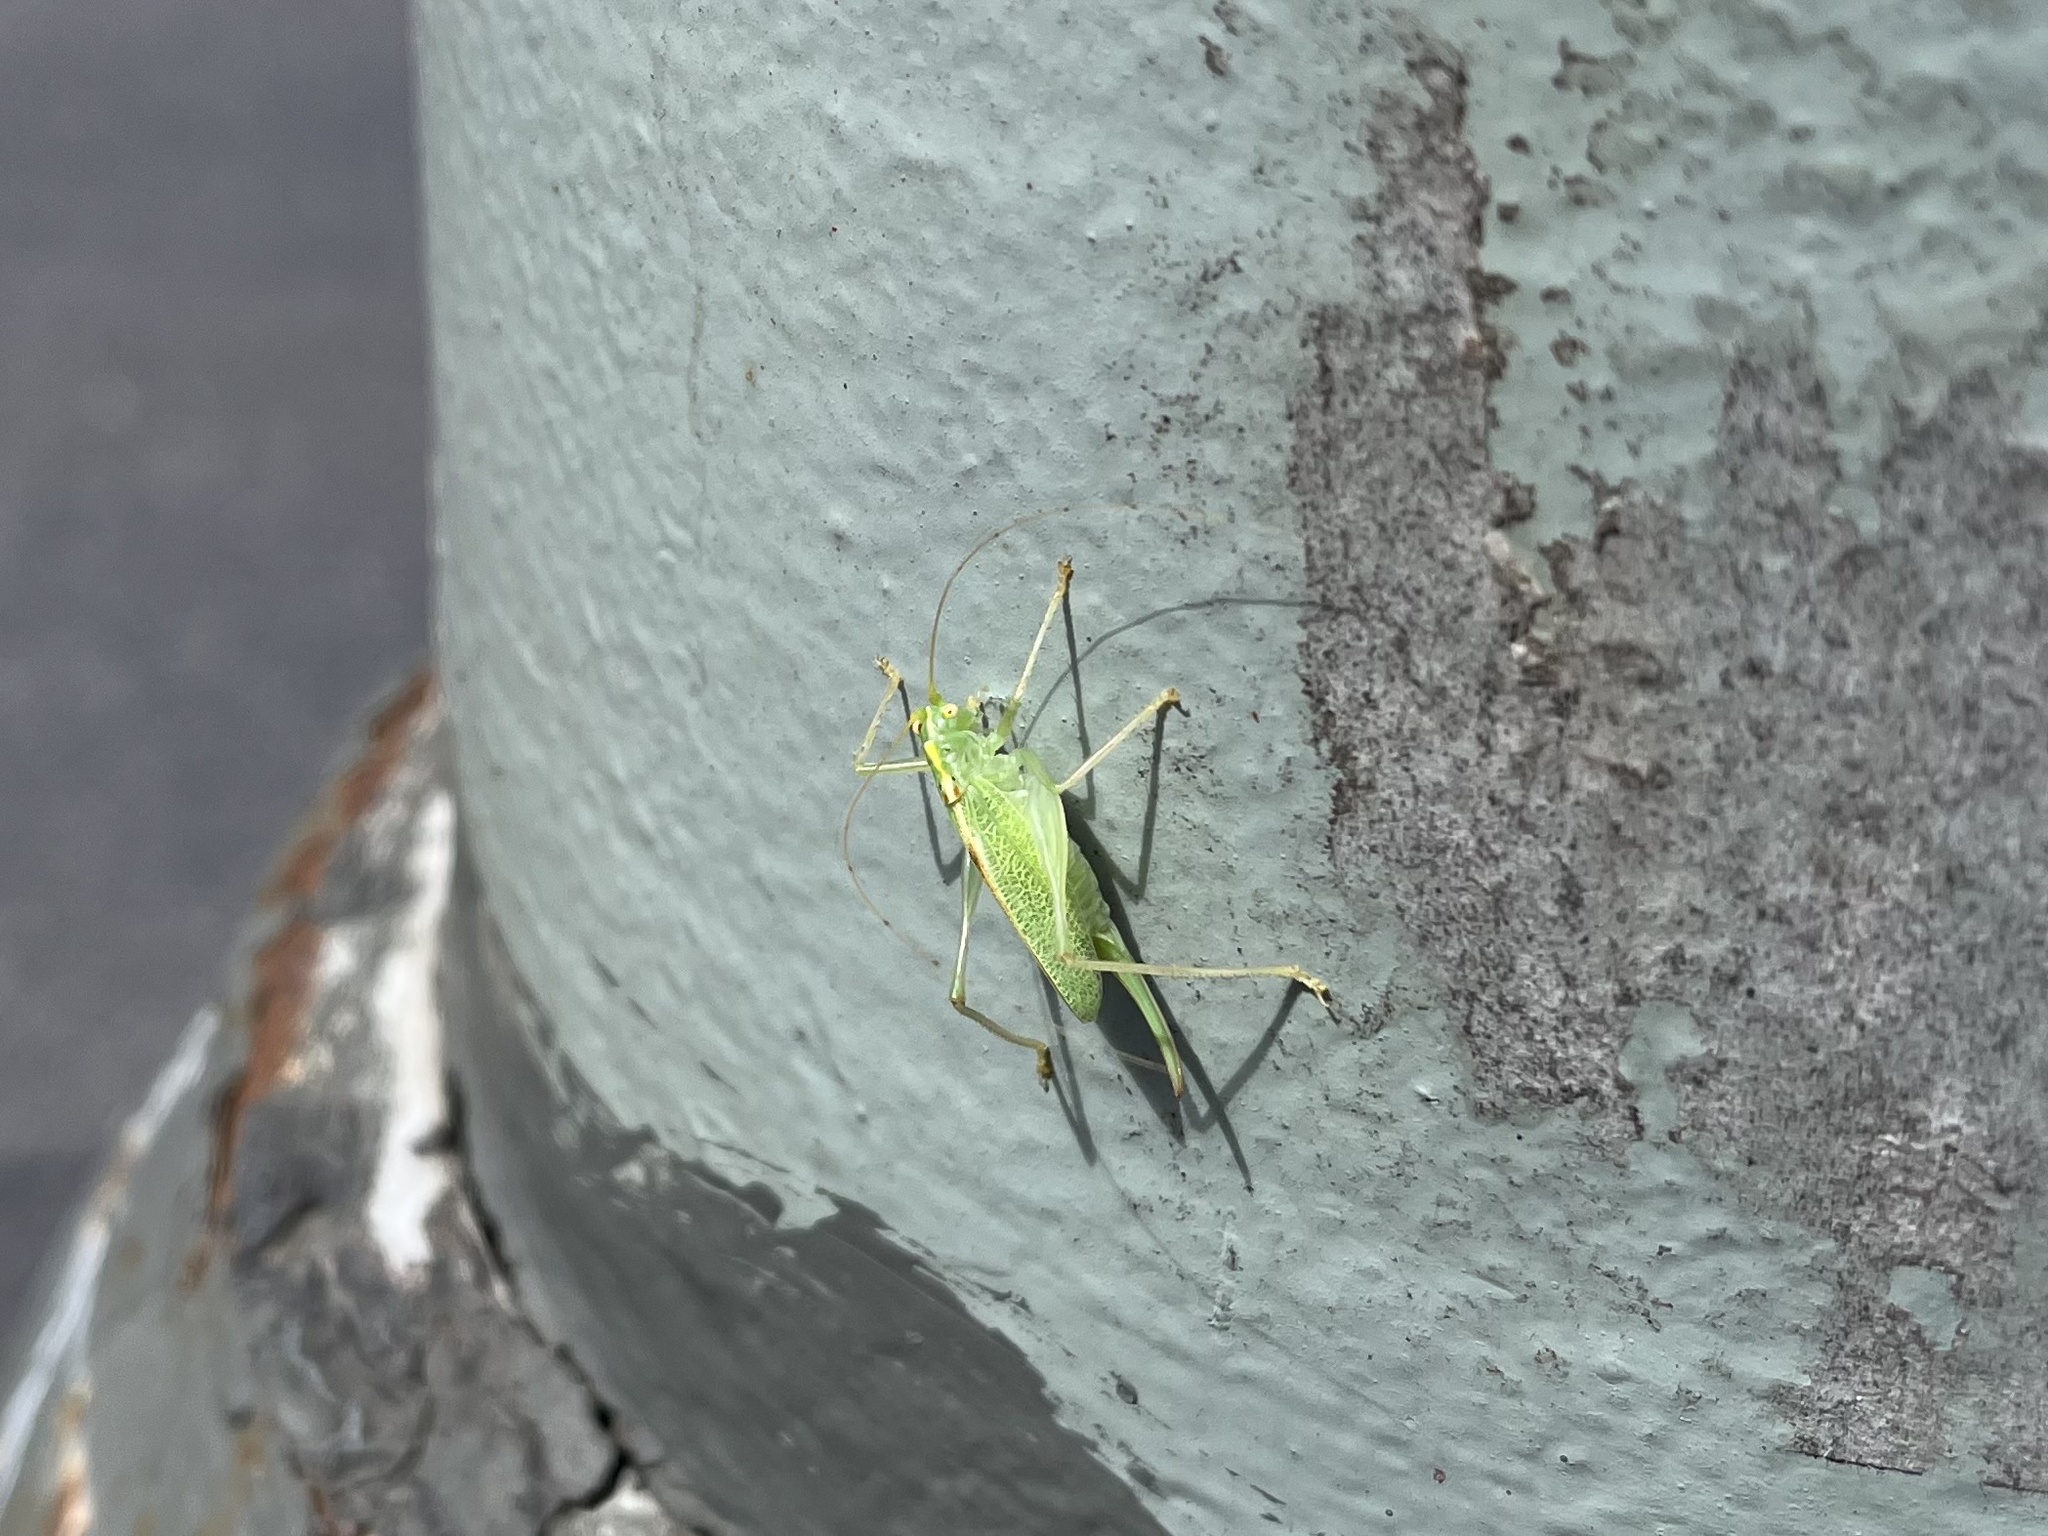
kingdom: Animalia
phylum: Arthropoda
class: Insecta
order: Orthoptera
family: Tettigoniidae
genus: Meconema
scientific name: Meconema thalassinum
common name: Oak bush-cricket
